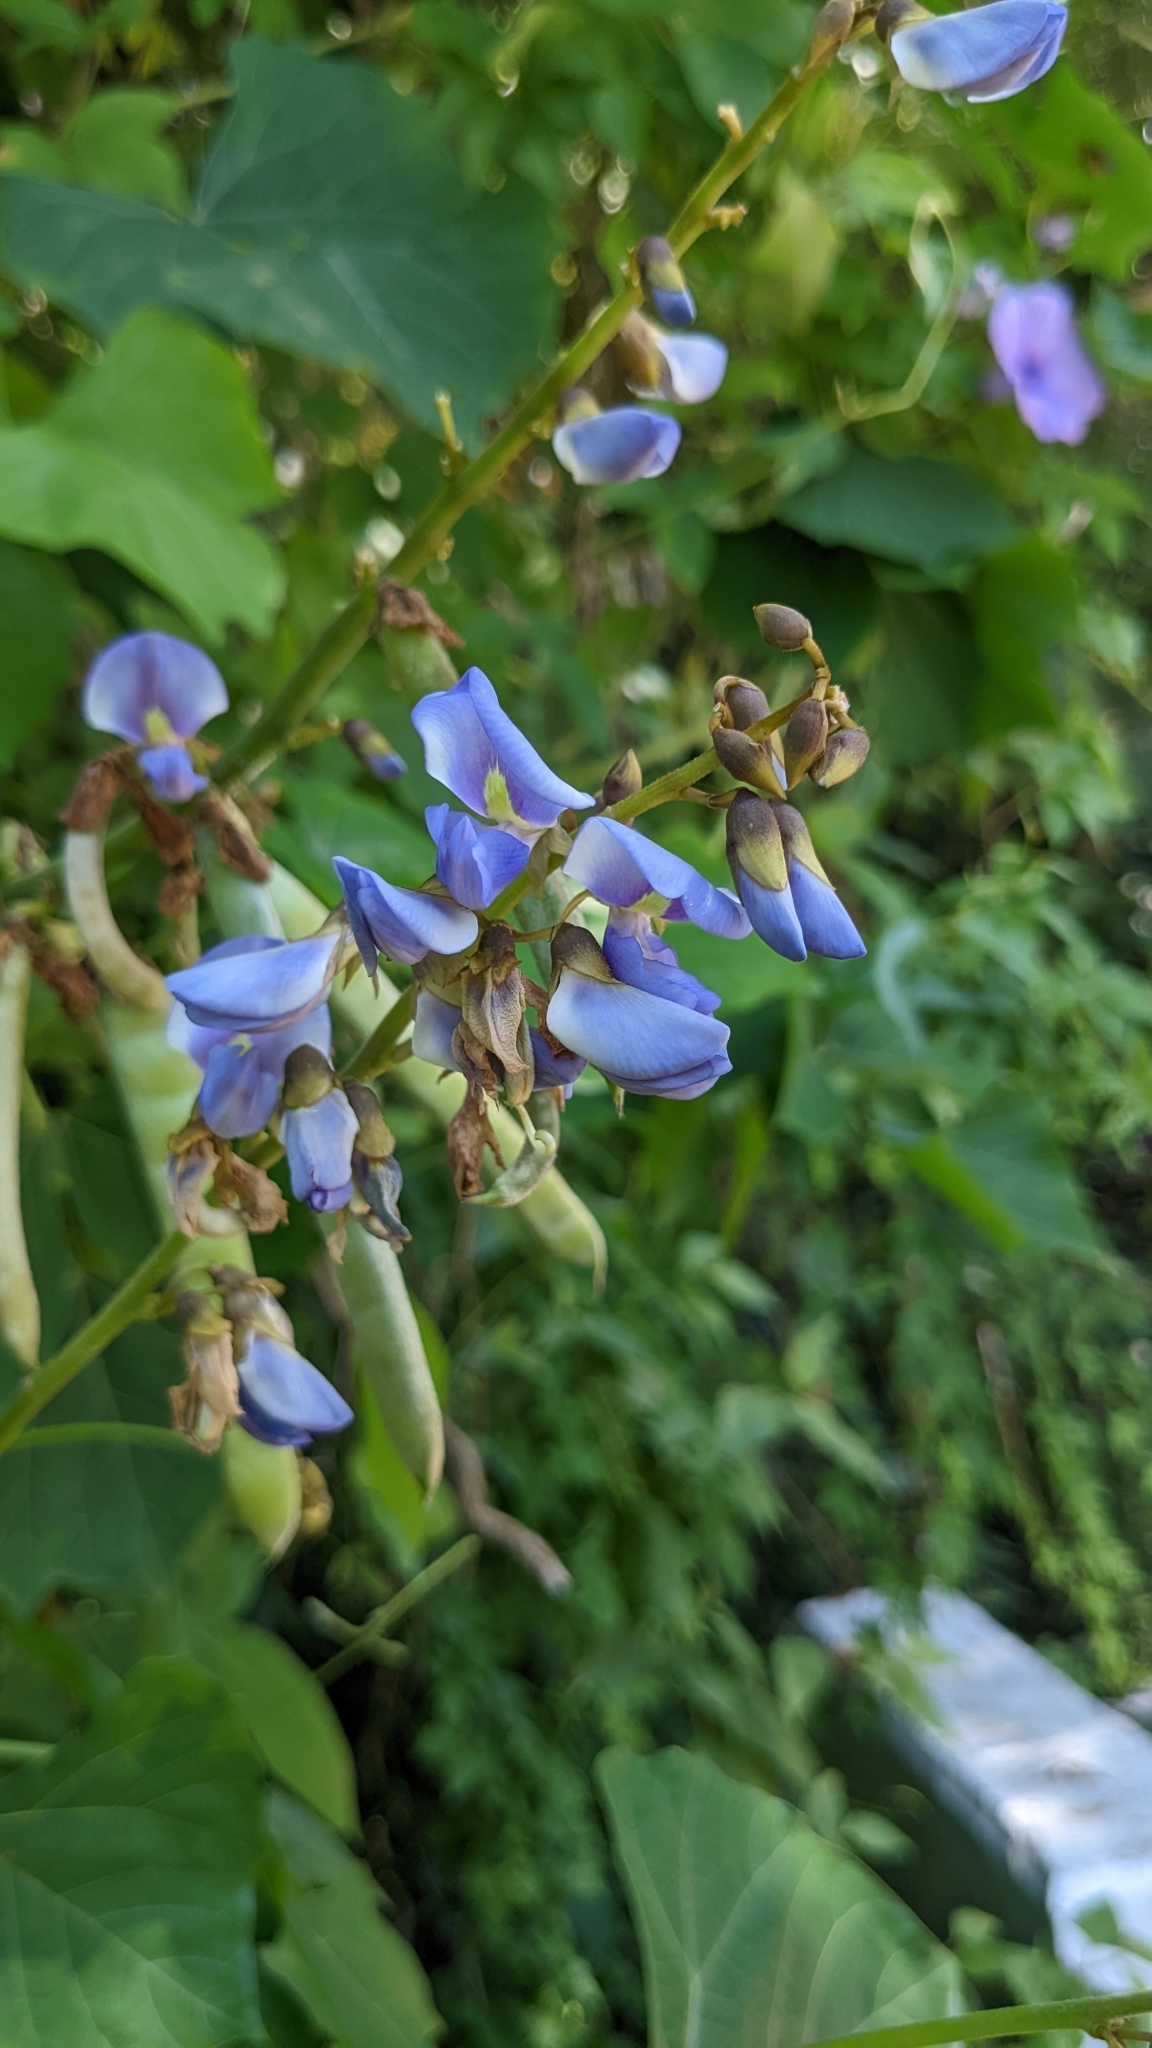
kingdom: Plantae
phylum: Tracheophyta
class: Magnoliopsida
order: Fabales
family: Fabaceae
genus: Pachyrhizus
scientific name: Pachyrhizus erosus
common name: Yam bean
